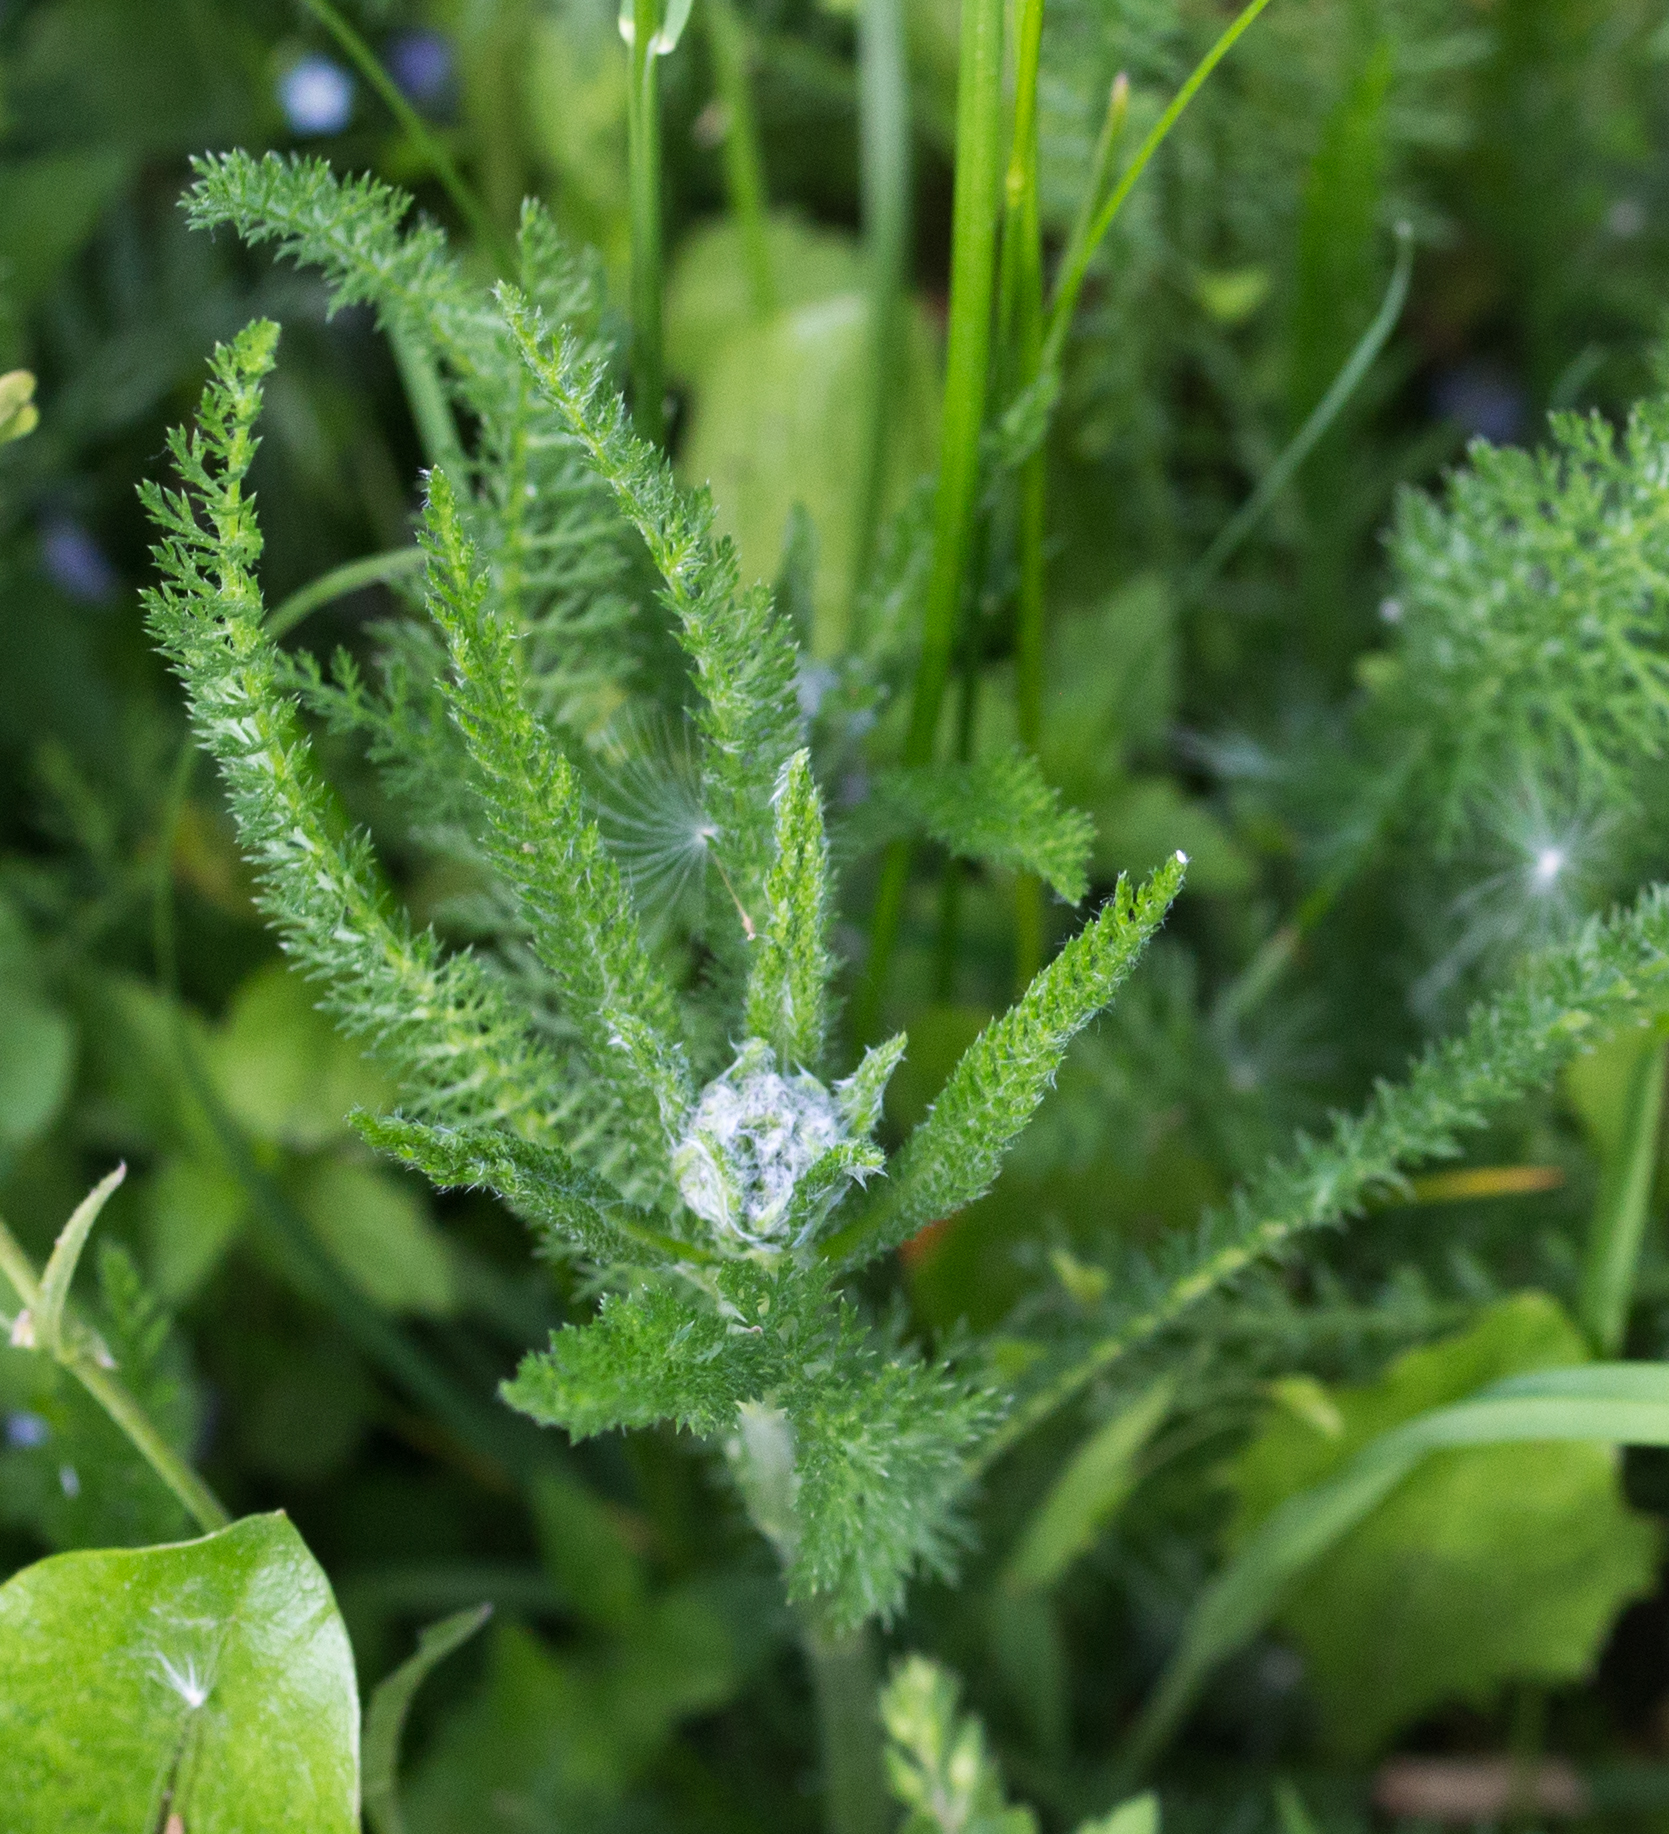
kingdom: Plantae
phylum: Tracheophyta
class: Magnoliopsida
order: Asterales
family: Asteraceae
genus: Achillea
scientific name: Achillea millefolium
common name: Yarrow
